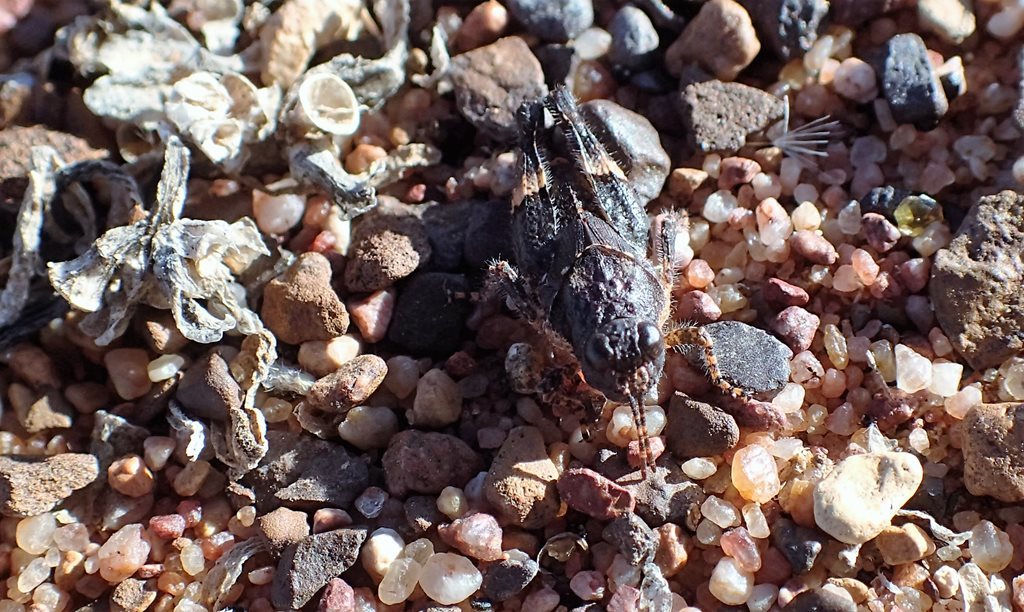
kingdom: Animalia
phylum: Arthropoda
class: Insecta
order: Orthoptera
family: Acrididae
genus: Qualetta
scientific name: Qualetta maculata
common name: Spotted bandwing
